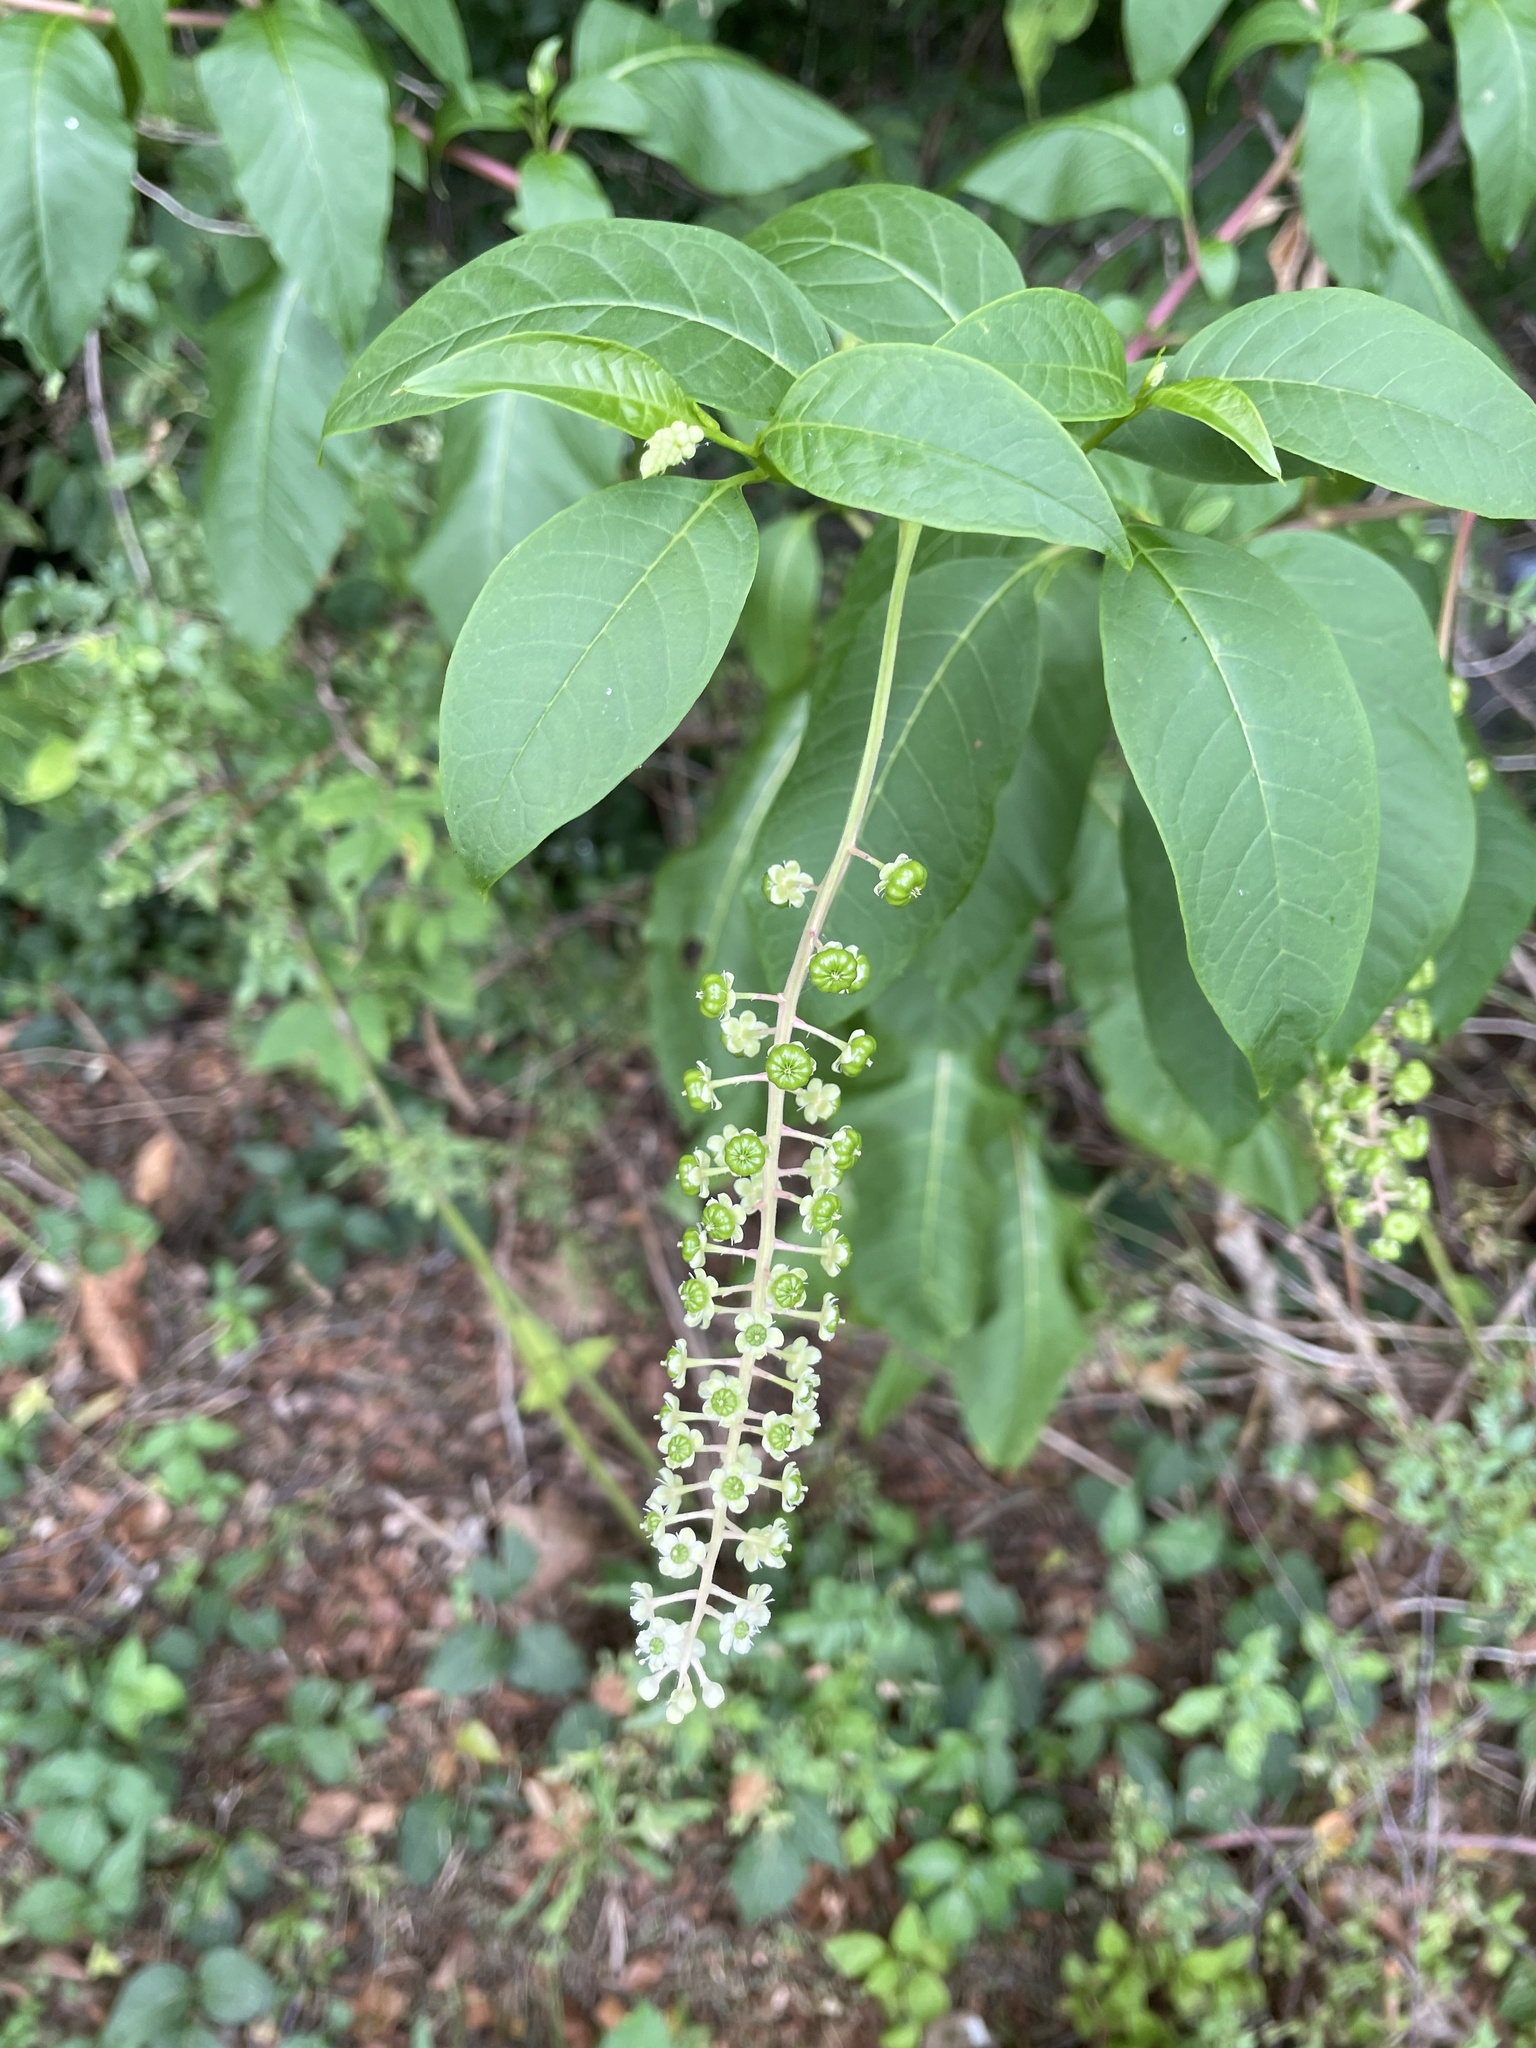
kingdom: Plantae
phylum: Tracheophyta
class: Magnoliopsida
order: Caryophyllales
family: Phytolaccaceae
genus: Phytolacca
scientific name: Phytolacca americana
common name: American pokeweed
